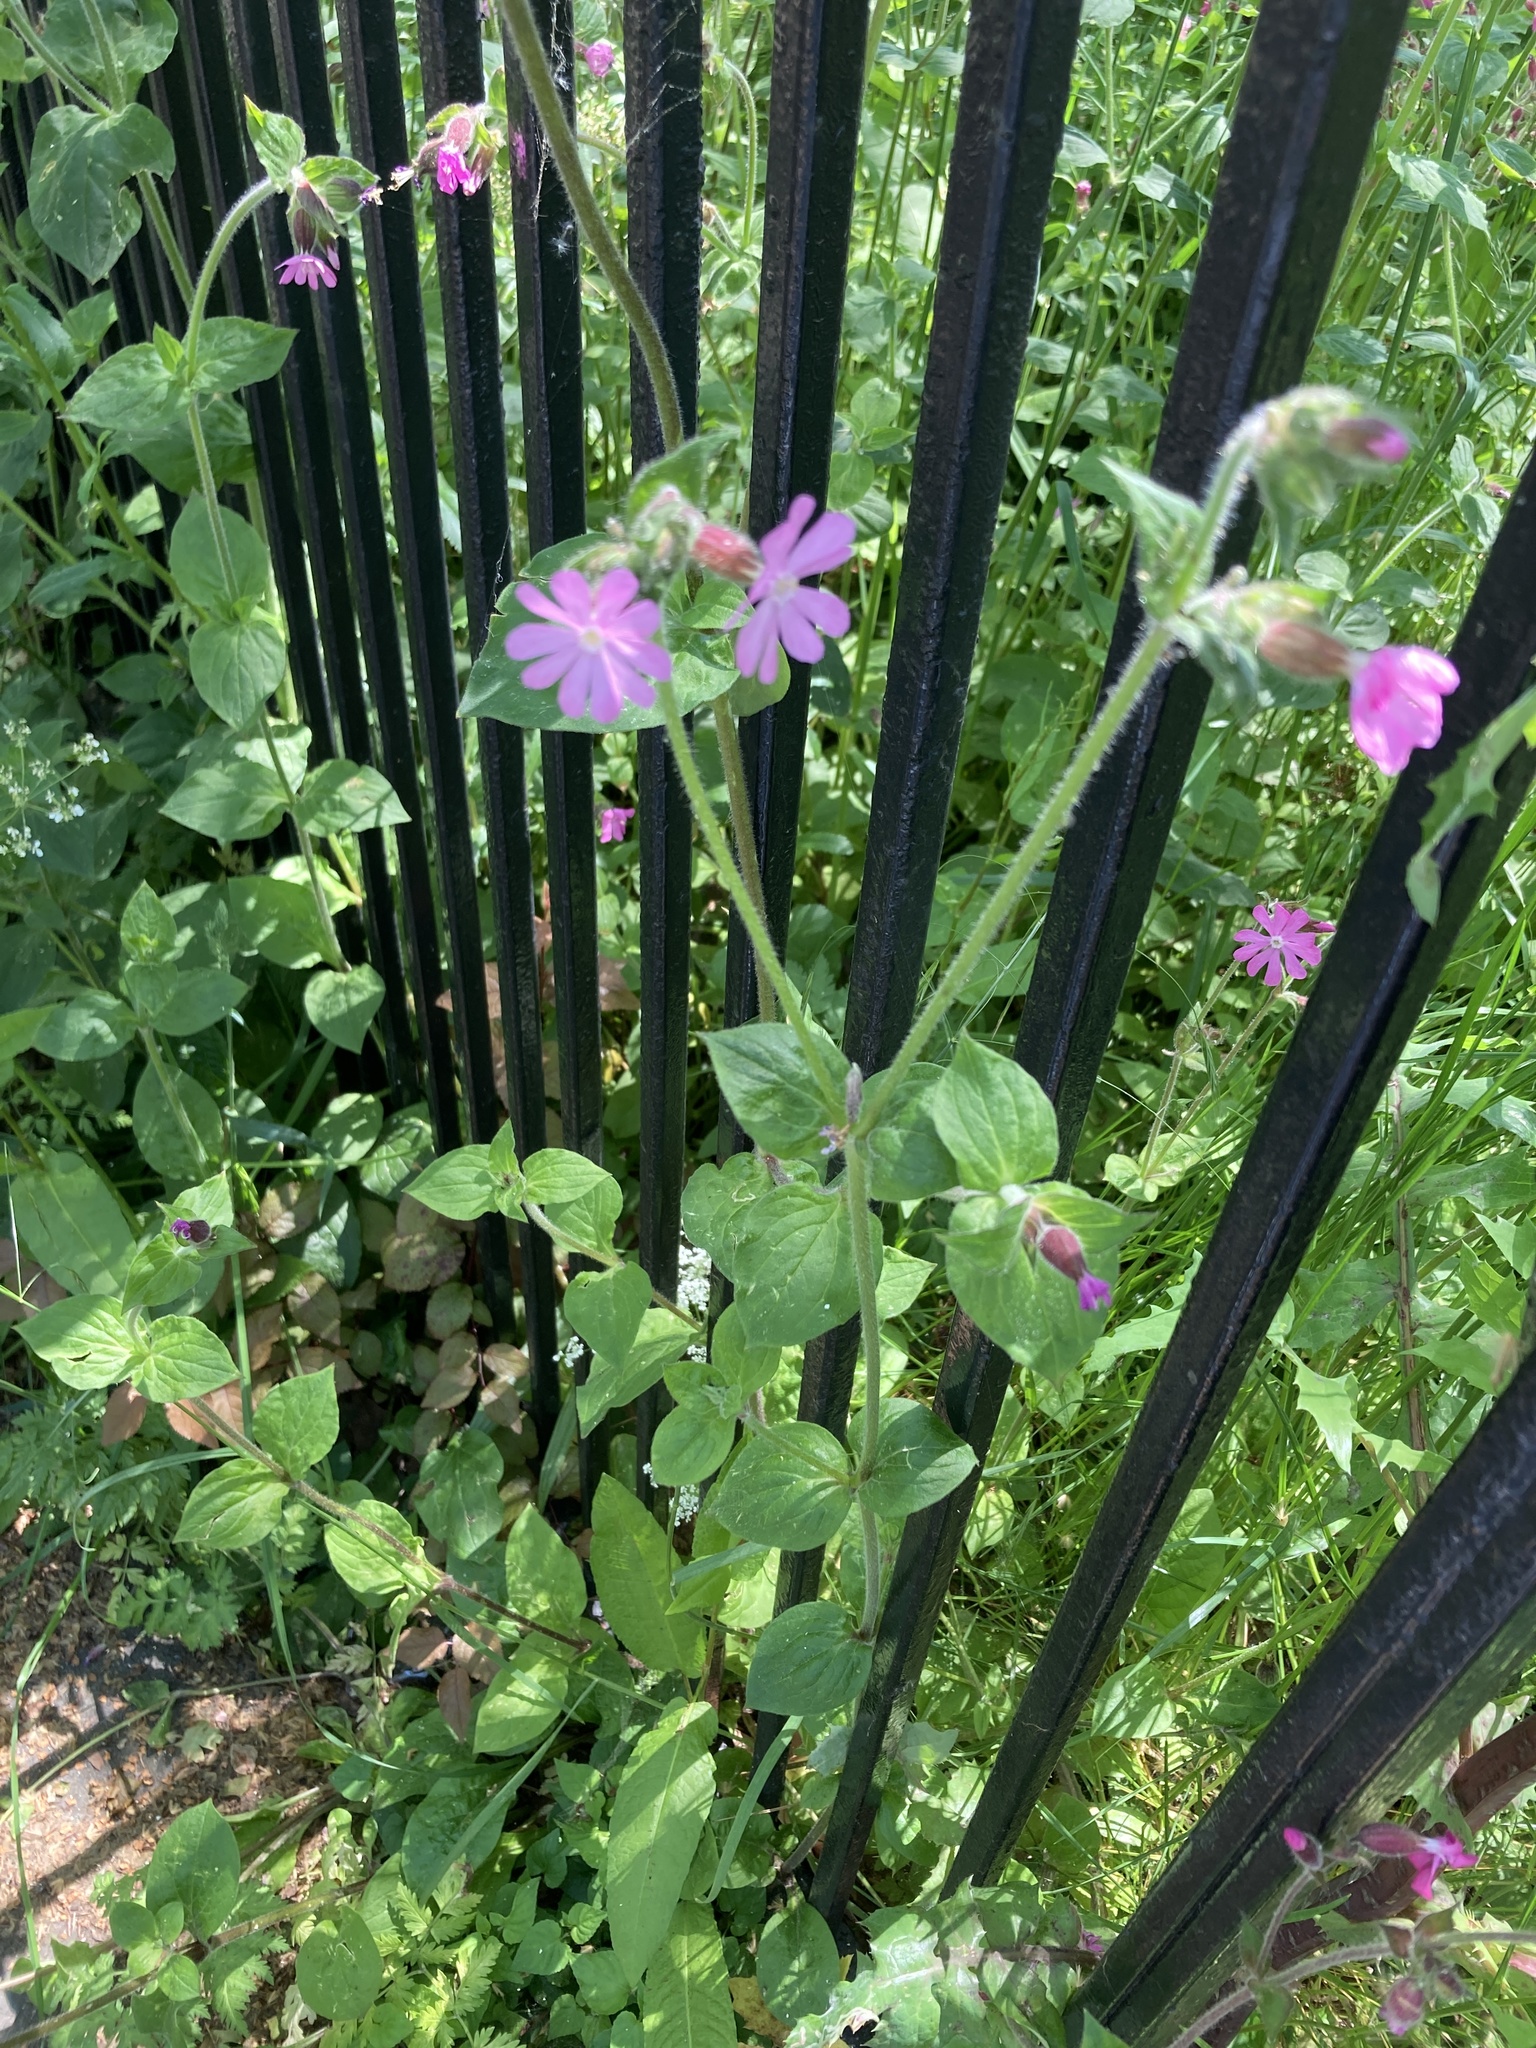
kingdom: Plantae
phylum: Tracheophyta
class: Magnoliopsida
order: Caryophyllales
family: Caryophyllaceae
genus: Silene
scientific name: Silene dioica
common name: Red campion
